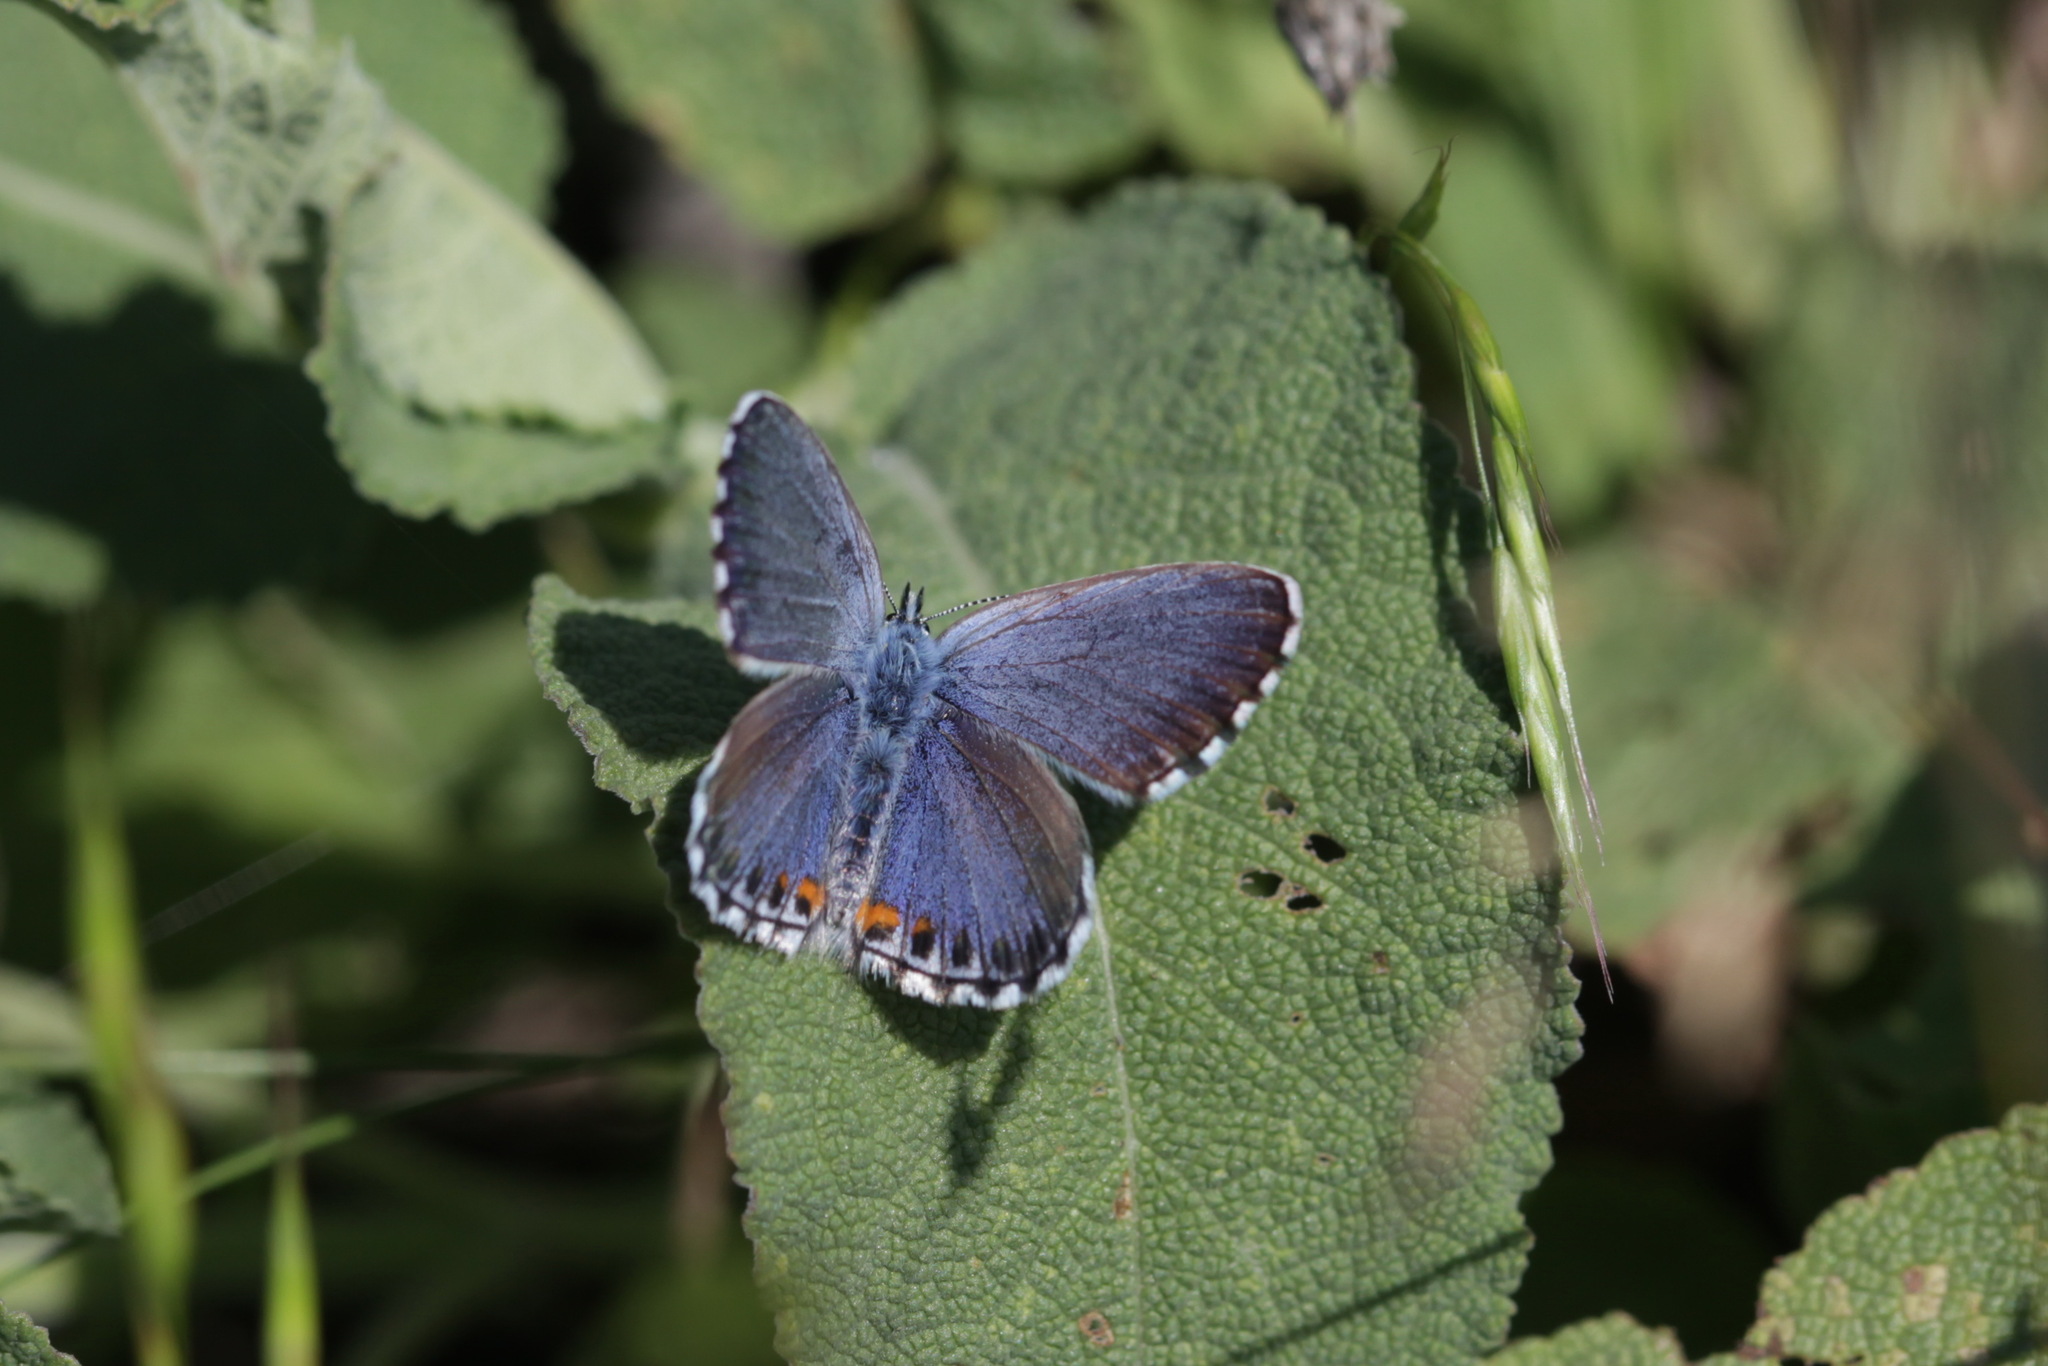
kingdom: Animalia
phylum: Arthropoda
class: Insecta
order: Lepidoptera
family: Lycaenidae
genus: Pseudophilotes
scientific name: Pseudophilotes bavius
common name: Bavius blue
